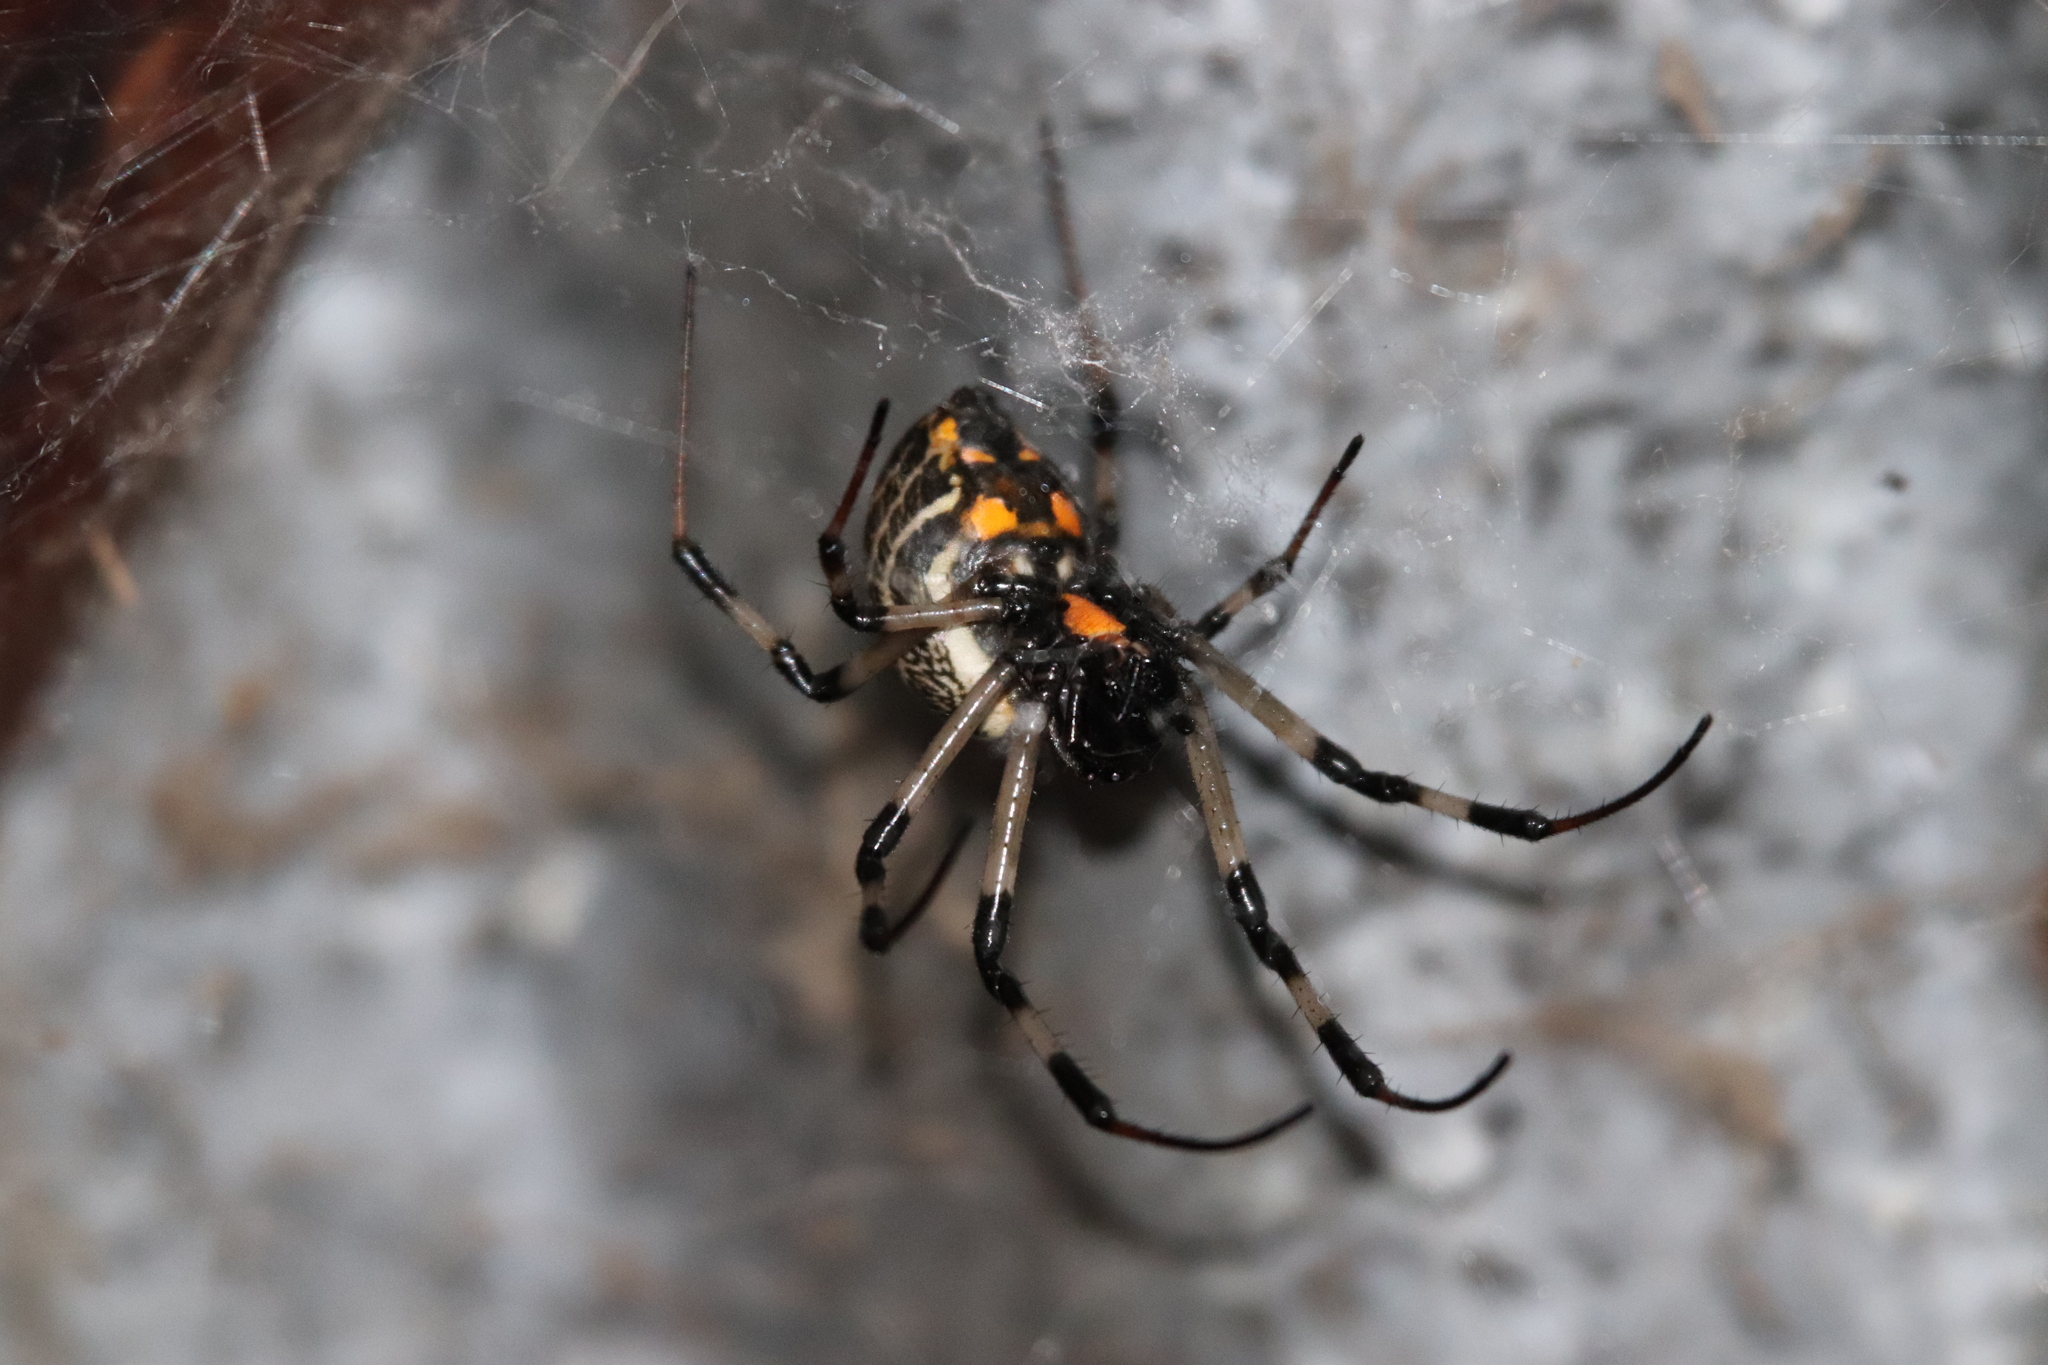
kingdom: Animalia
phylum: Arthropoda
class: Arachnida
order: Araneae
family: Araneidae
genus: Nephilengys
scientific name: Nephilengys malabarensis
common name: Asian hermit spider
